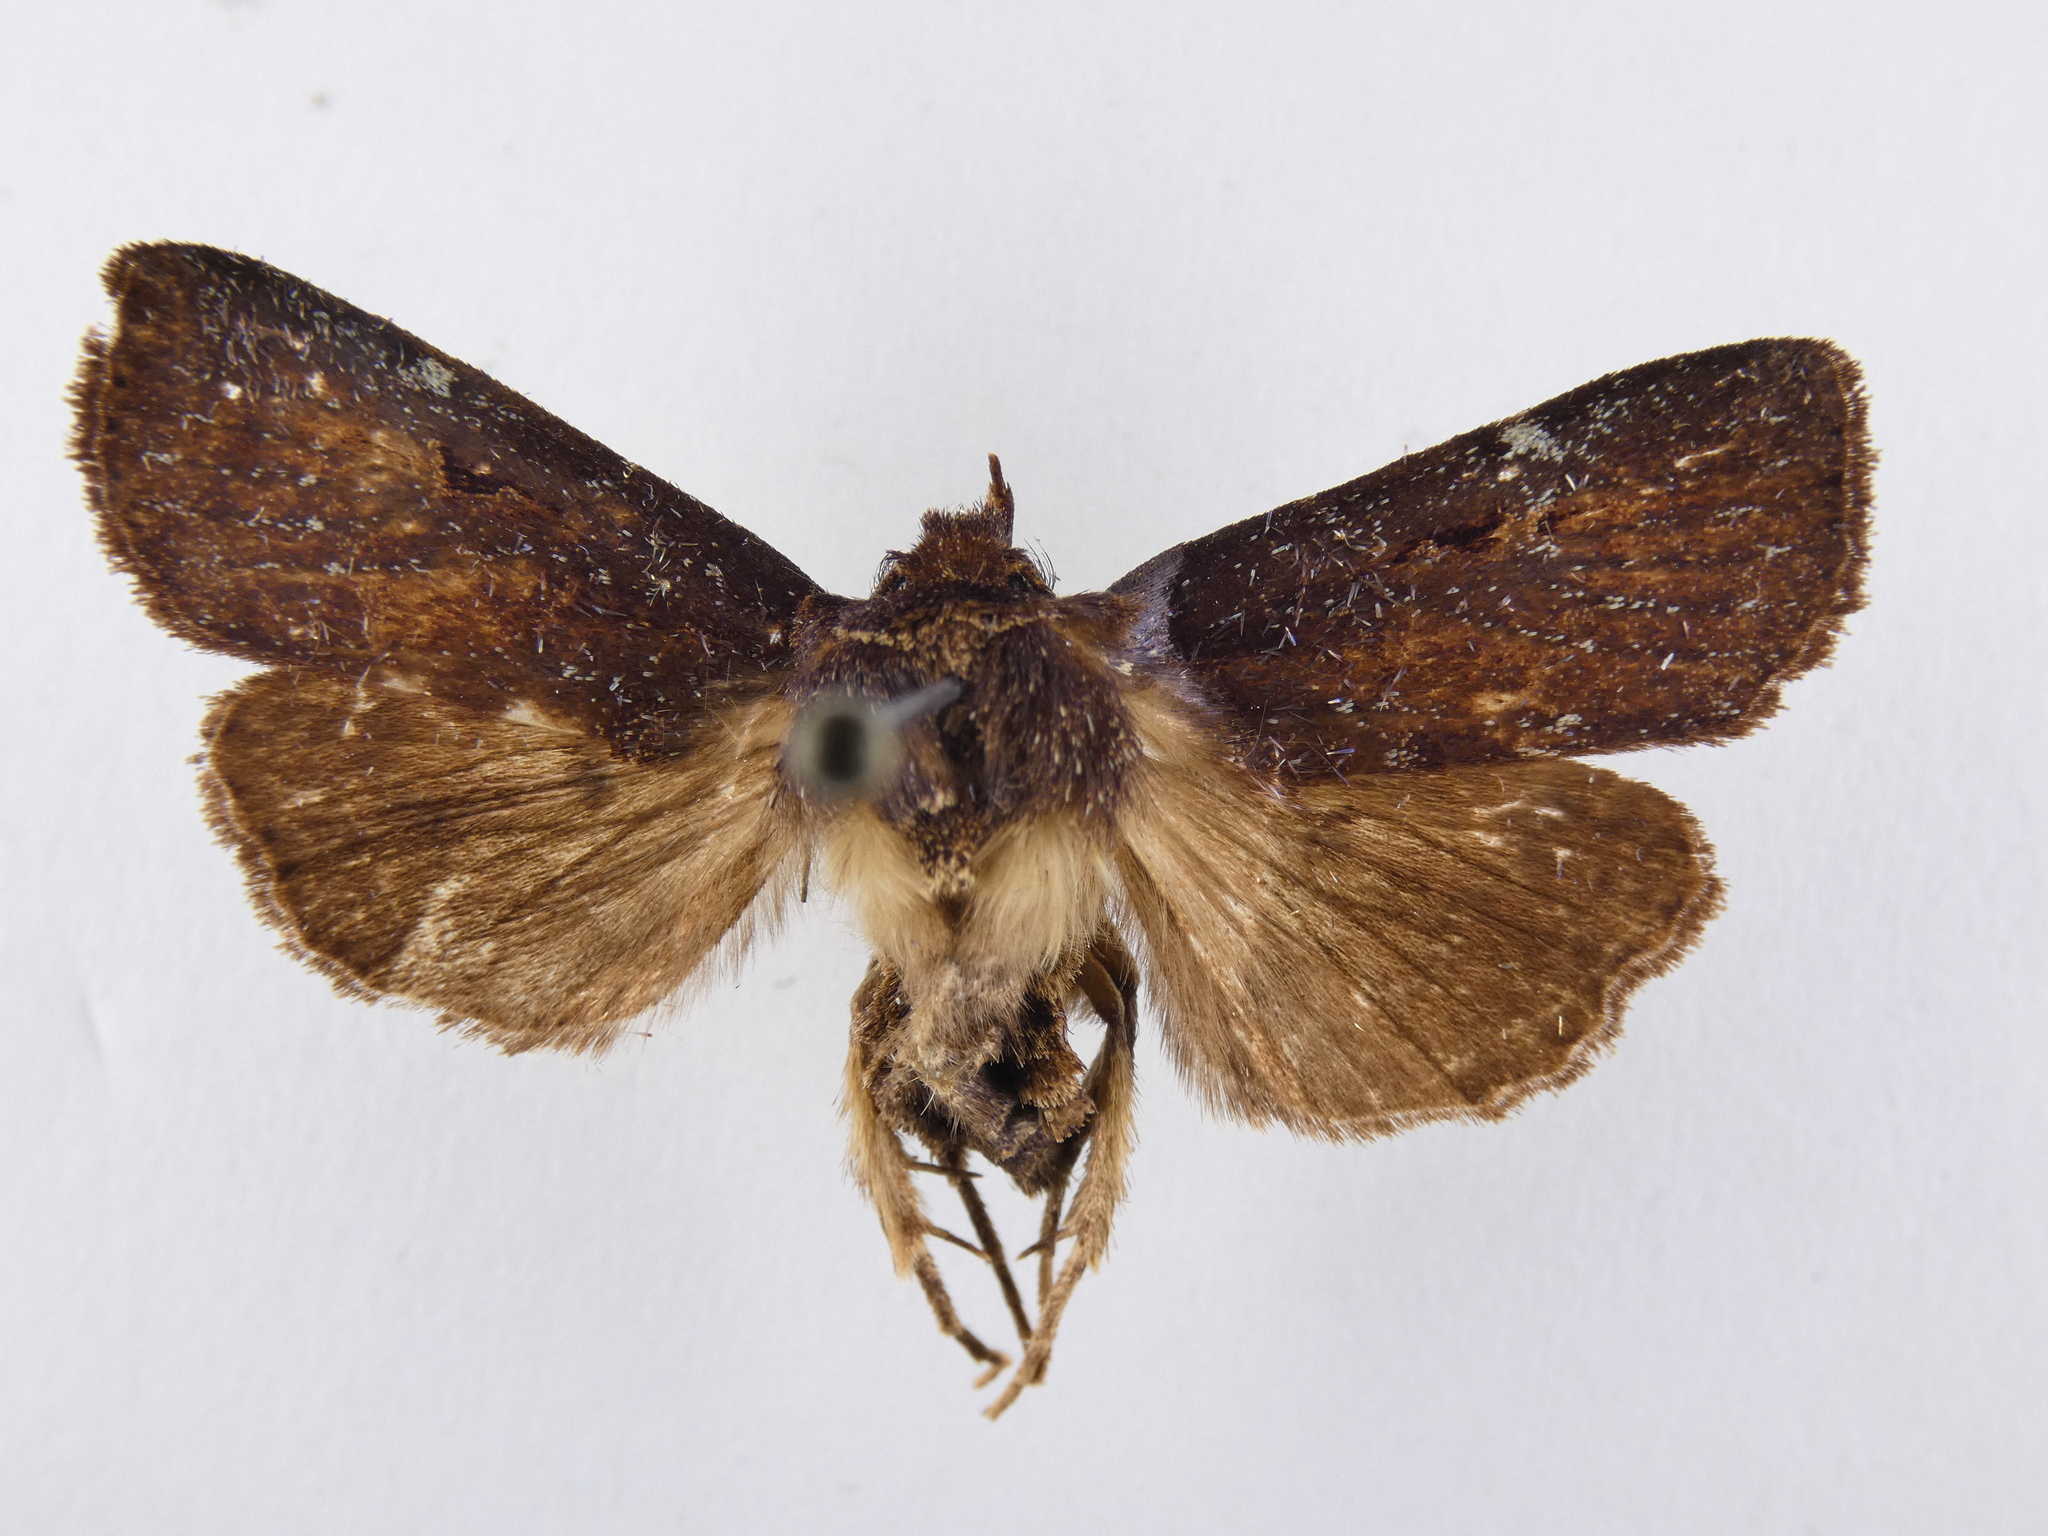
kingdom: Animalia
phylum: Arthropoda
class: Insecta
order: Lepidoptera
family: Noctuidae
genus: Austramathes
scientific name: Austramathes purpurea
